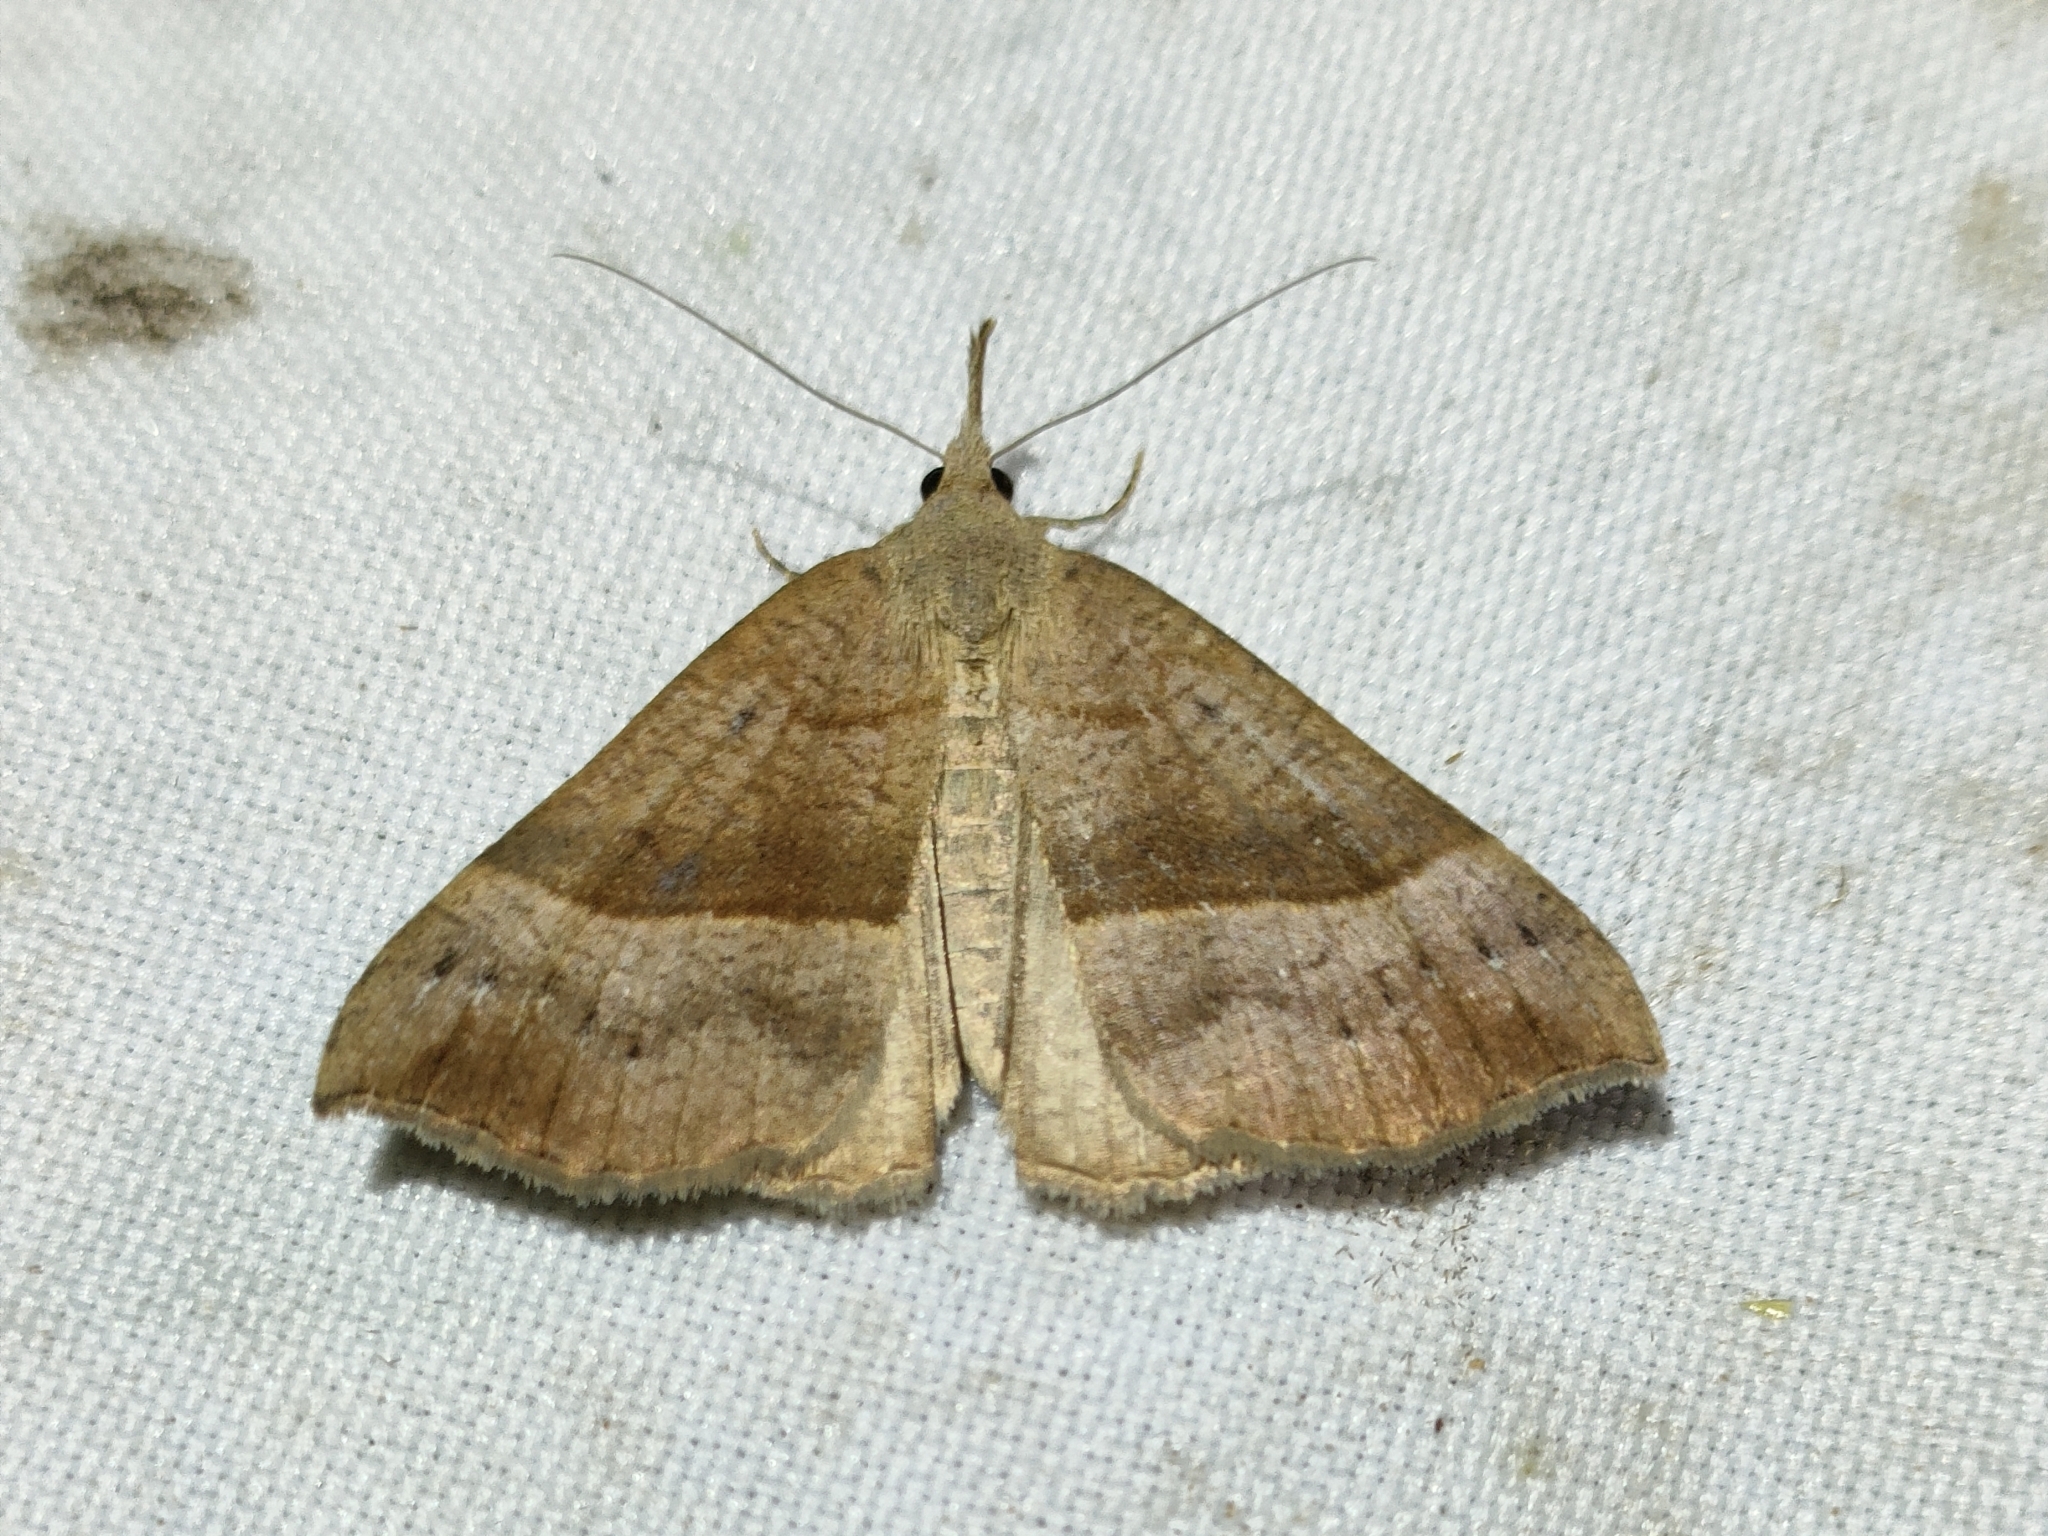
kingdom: Animalia
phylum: Arthropoda
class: Insecta
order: Lepidoptera
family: Erebidae
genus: Hypena
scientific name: Hypena proboscidalis
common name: Snout
